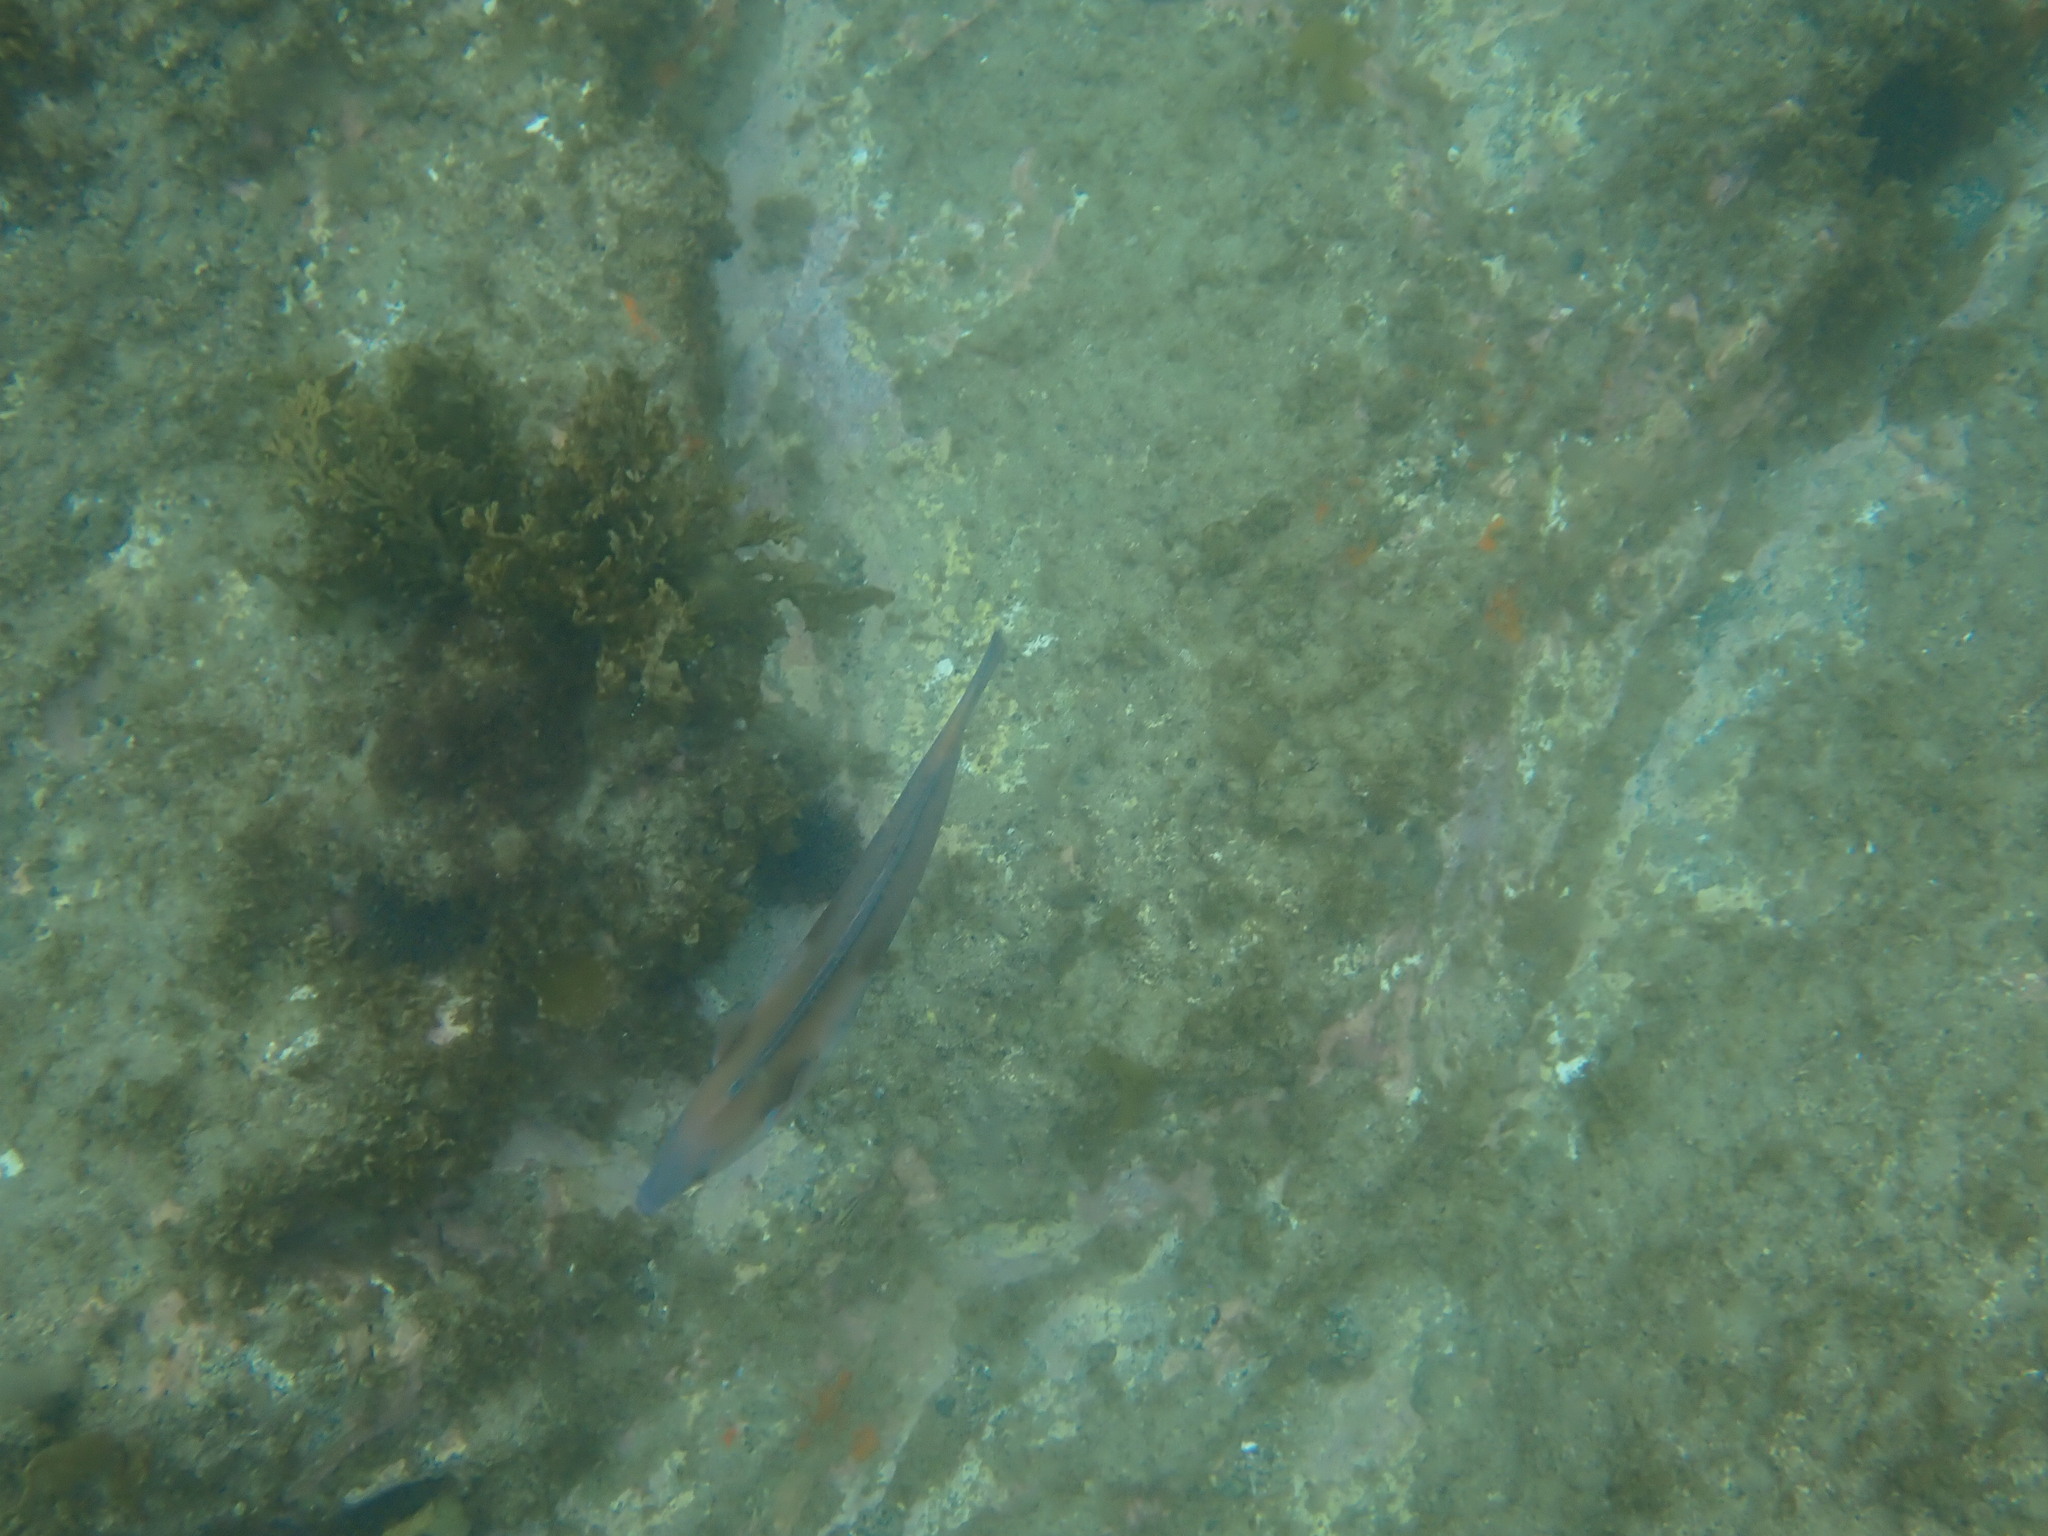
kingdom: Animalia
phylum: Chordata
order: Perciformes
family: Labridae
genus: Coris
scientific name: Coris sandeyeri
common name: Sandager's wrasse
